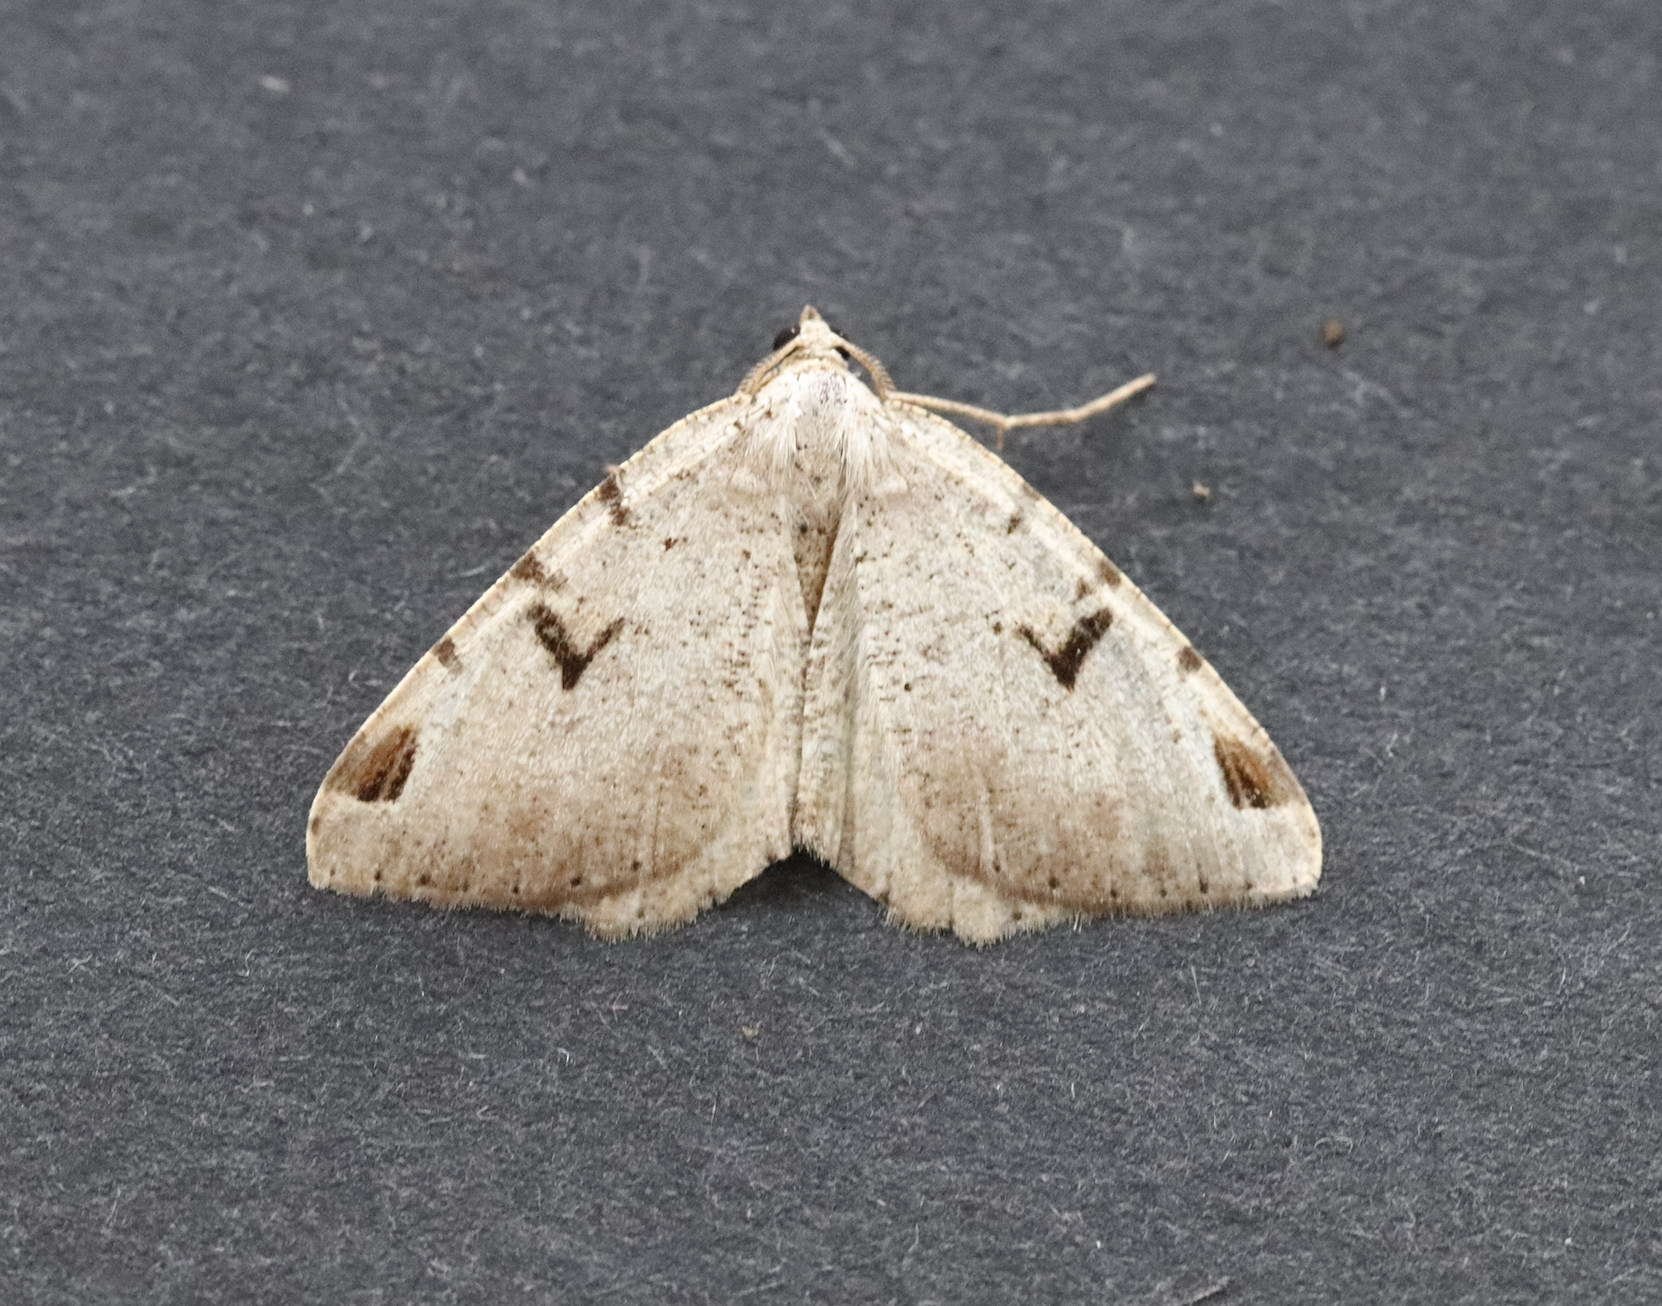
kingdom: Animalia
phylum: Arthropoda
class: Insecta
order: Lepidoptera
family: Geometridae
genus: Macaria
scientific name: Macaria wauaria
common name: V-moth
